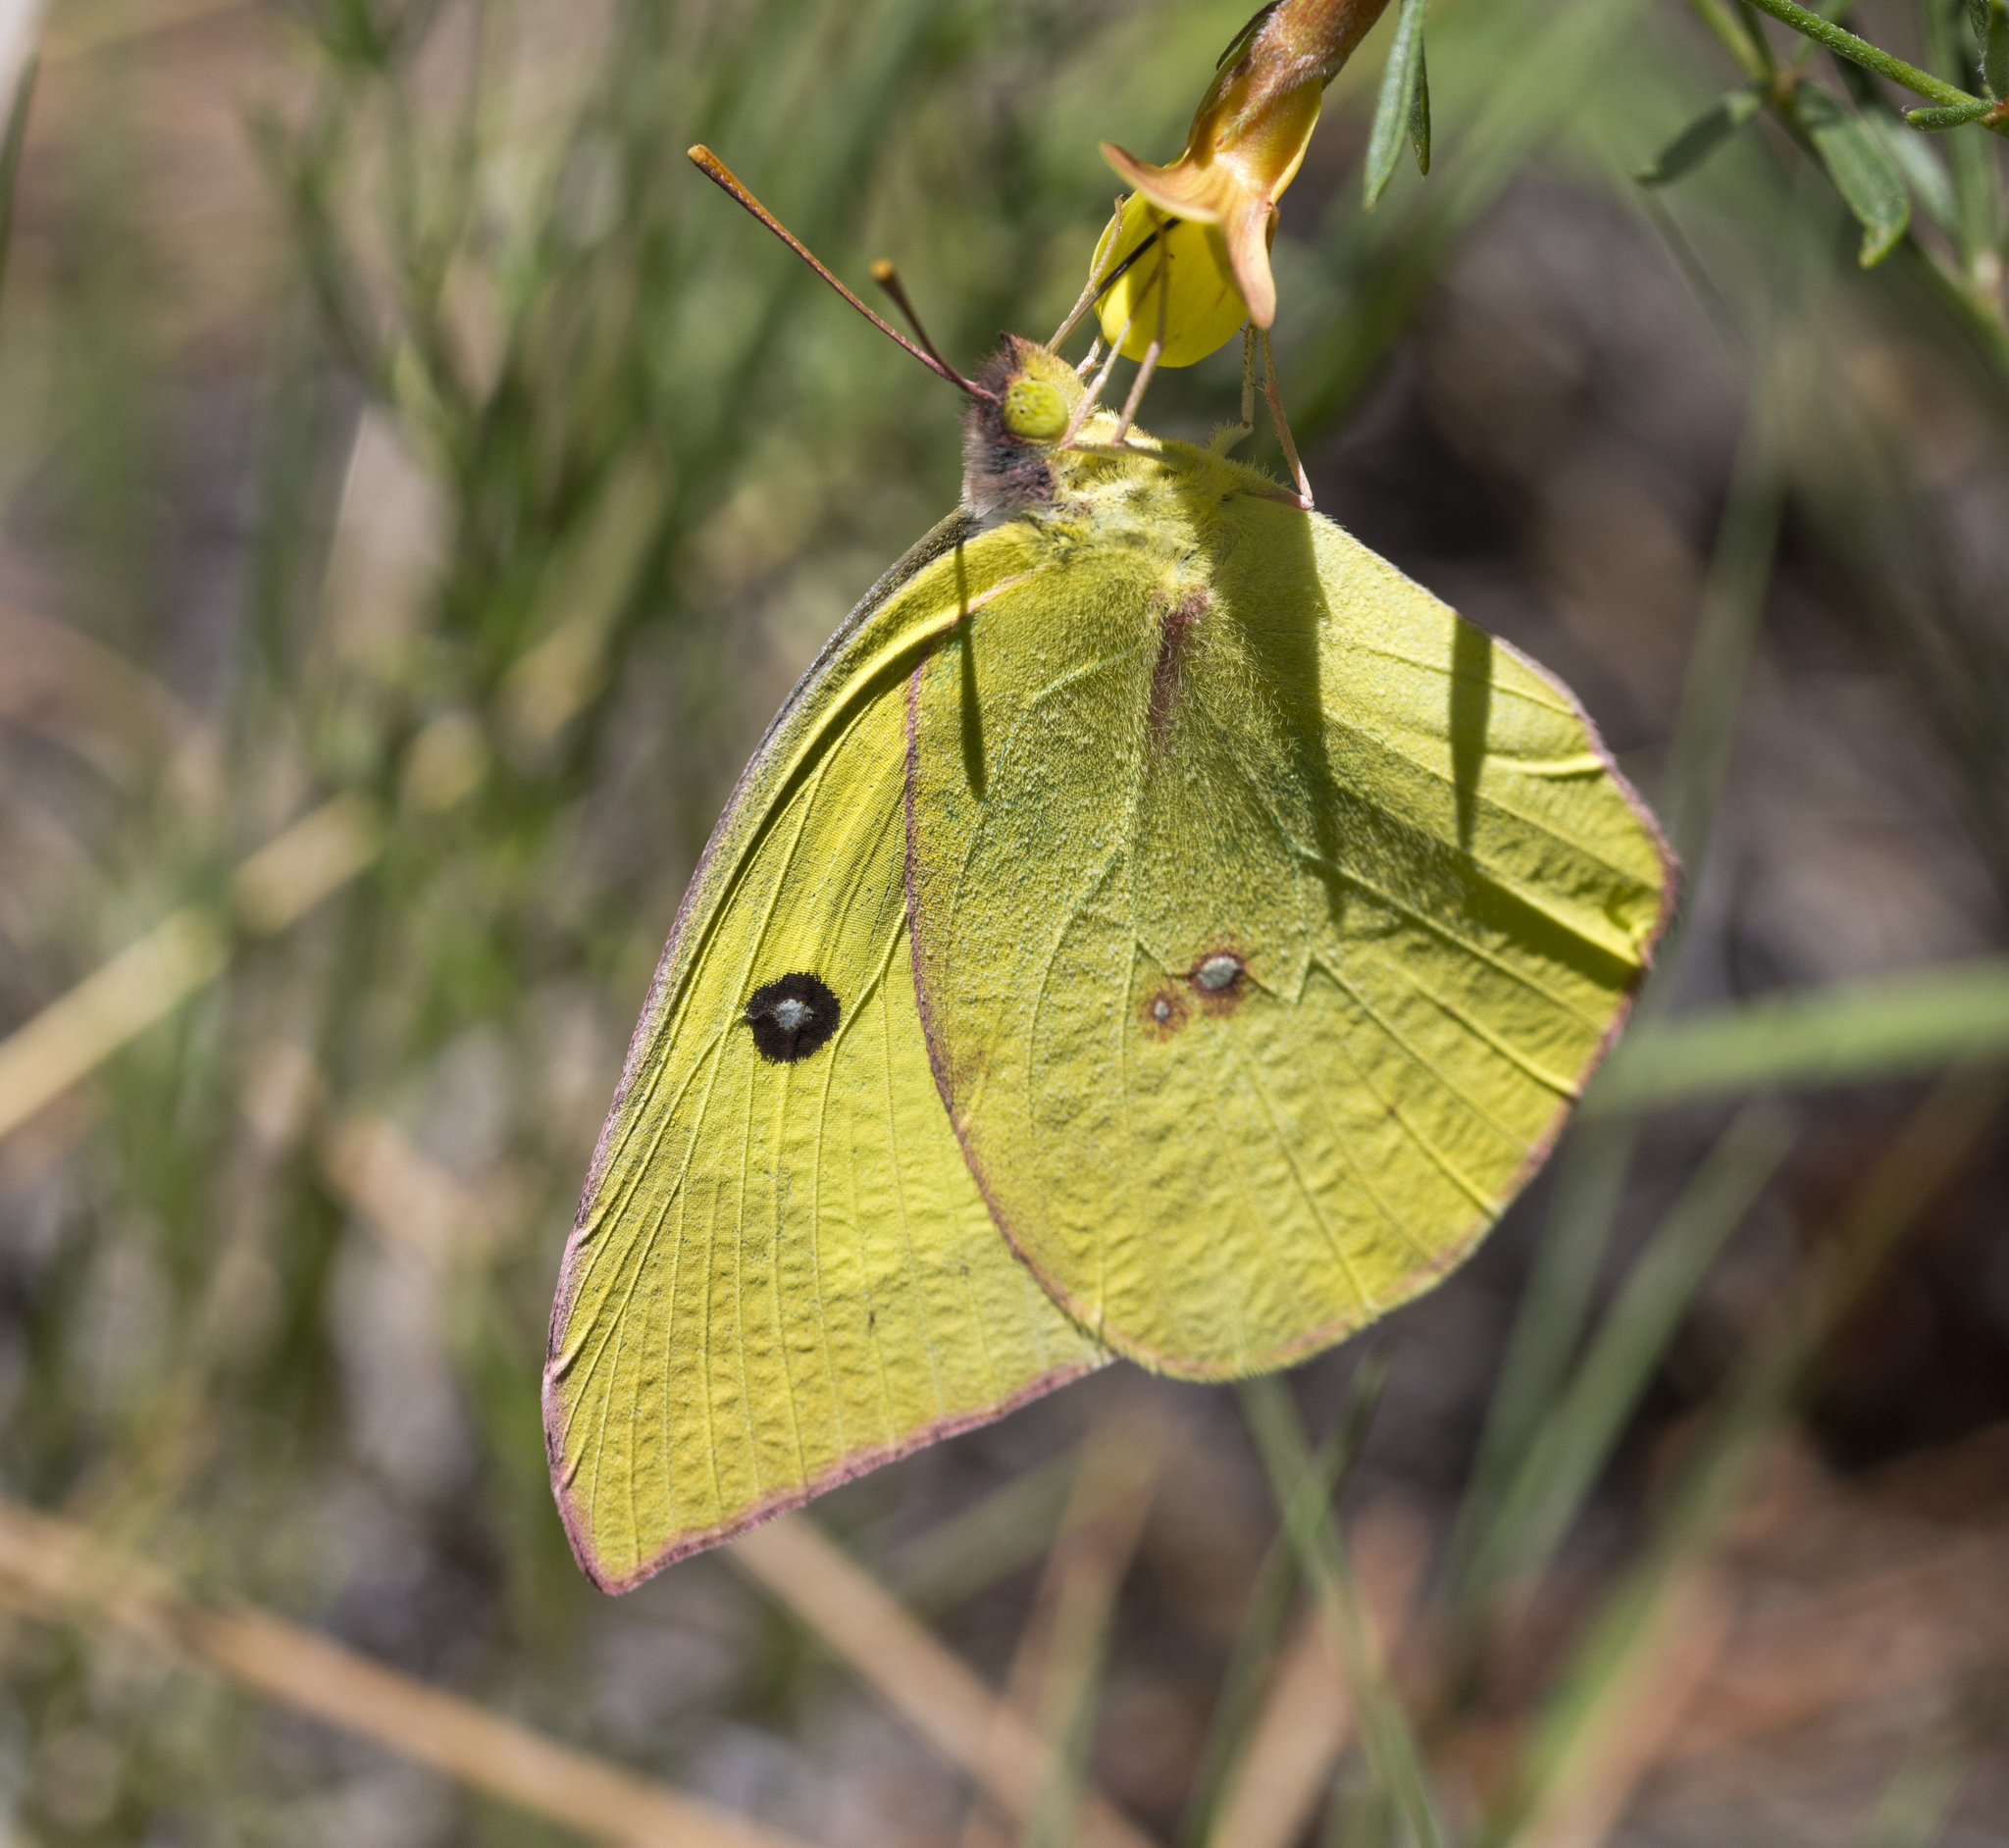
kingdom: Animalia
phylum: Arthropoda
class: Insecta
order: Lepidoptera
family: Pieridae
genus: Zerene
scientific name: Zerene cesonia
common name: Southern dogface
